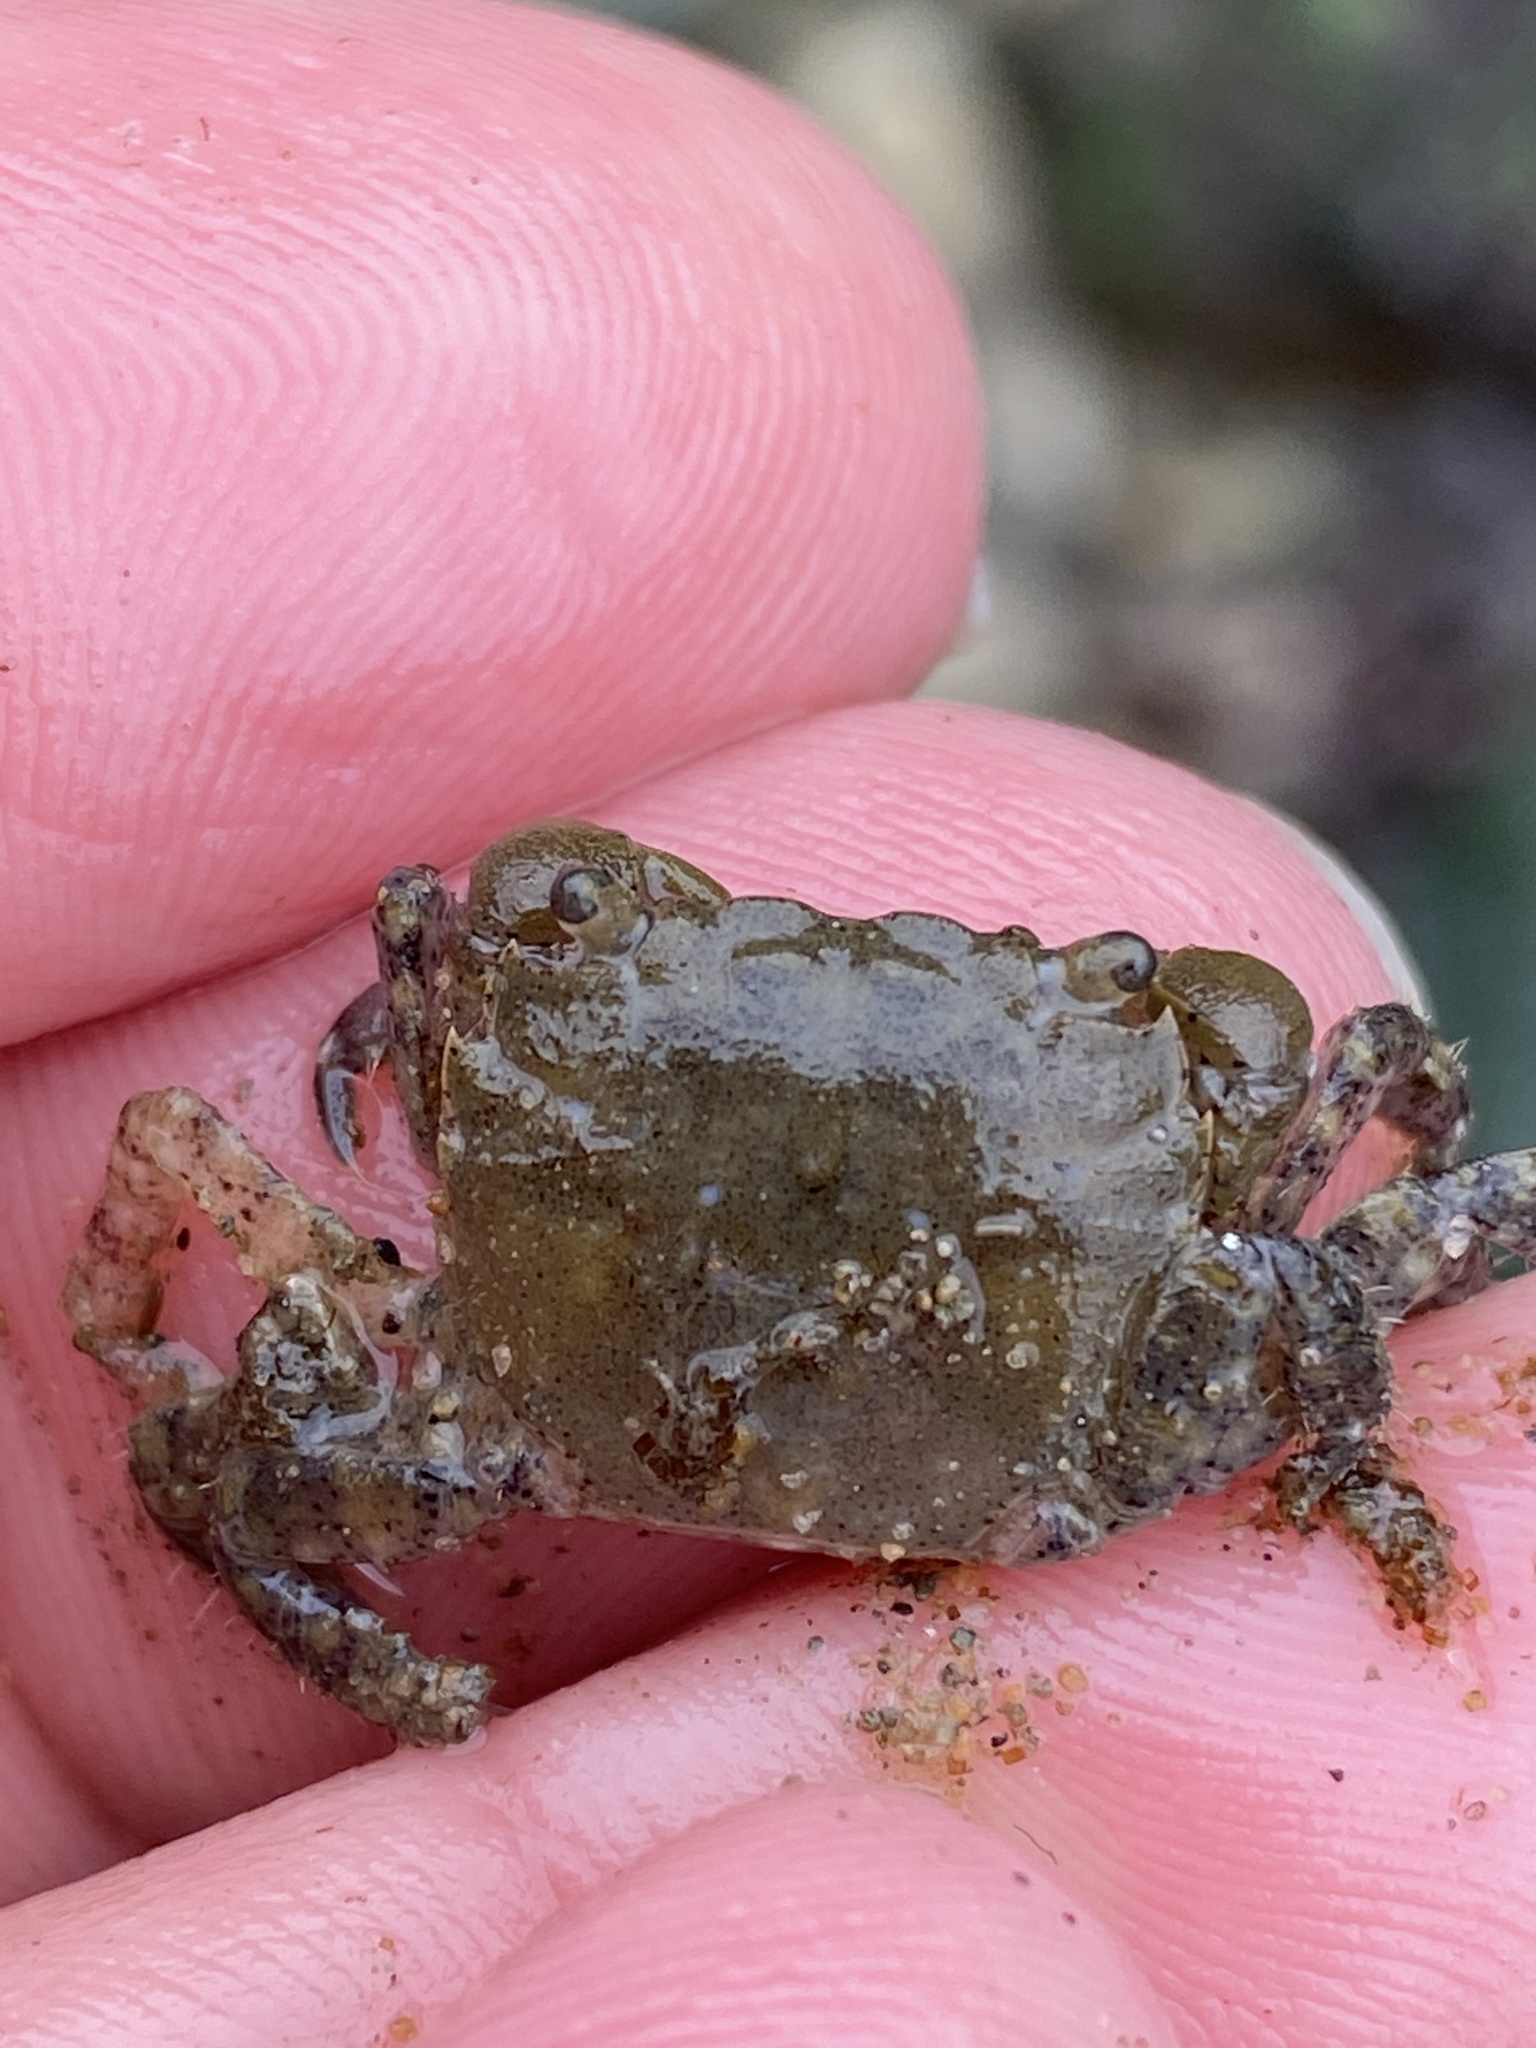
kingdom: Animalia
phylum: Arthropoda
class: Malacostraca
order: Decapoda
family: Varunidae
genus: Hemigrapsus
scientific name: Hemigrapsus oregonensis
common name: Yellow shore crab
